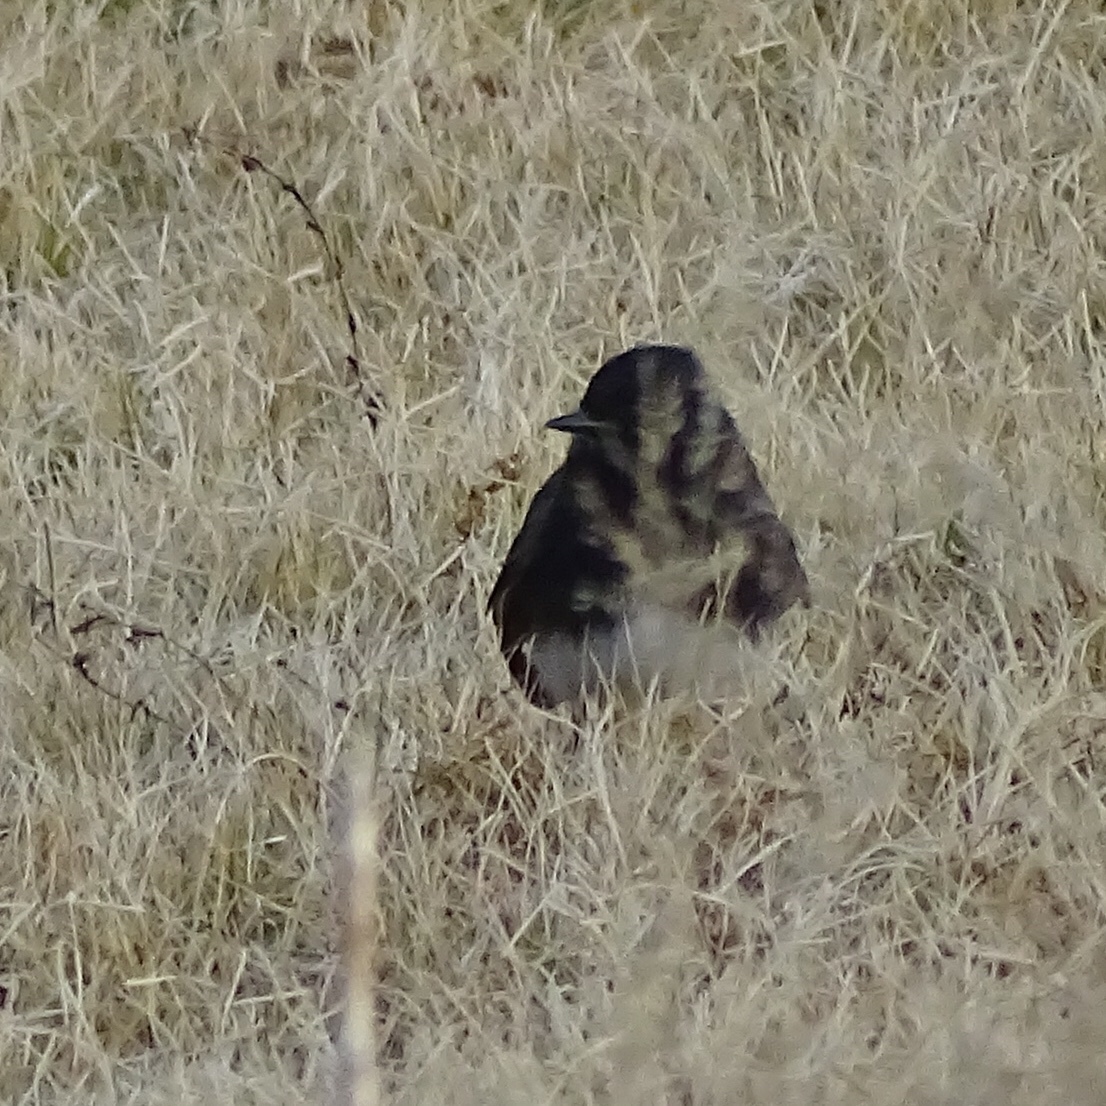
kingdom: Animalia
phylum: Chordata
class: Aves
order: Passeriformes
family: Tyrannidae
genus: Sayornis
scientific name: Sayornis nigricans
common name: Black phoebe
